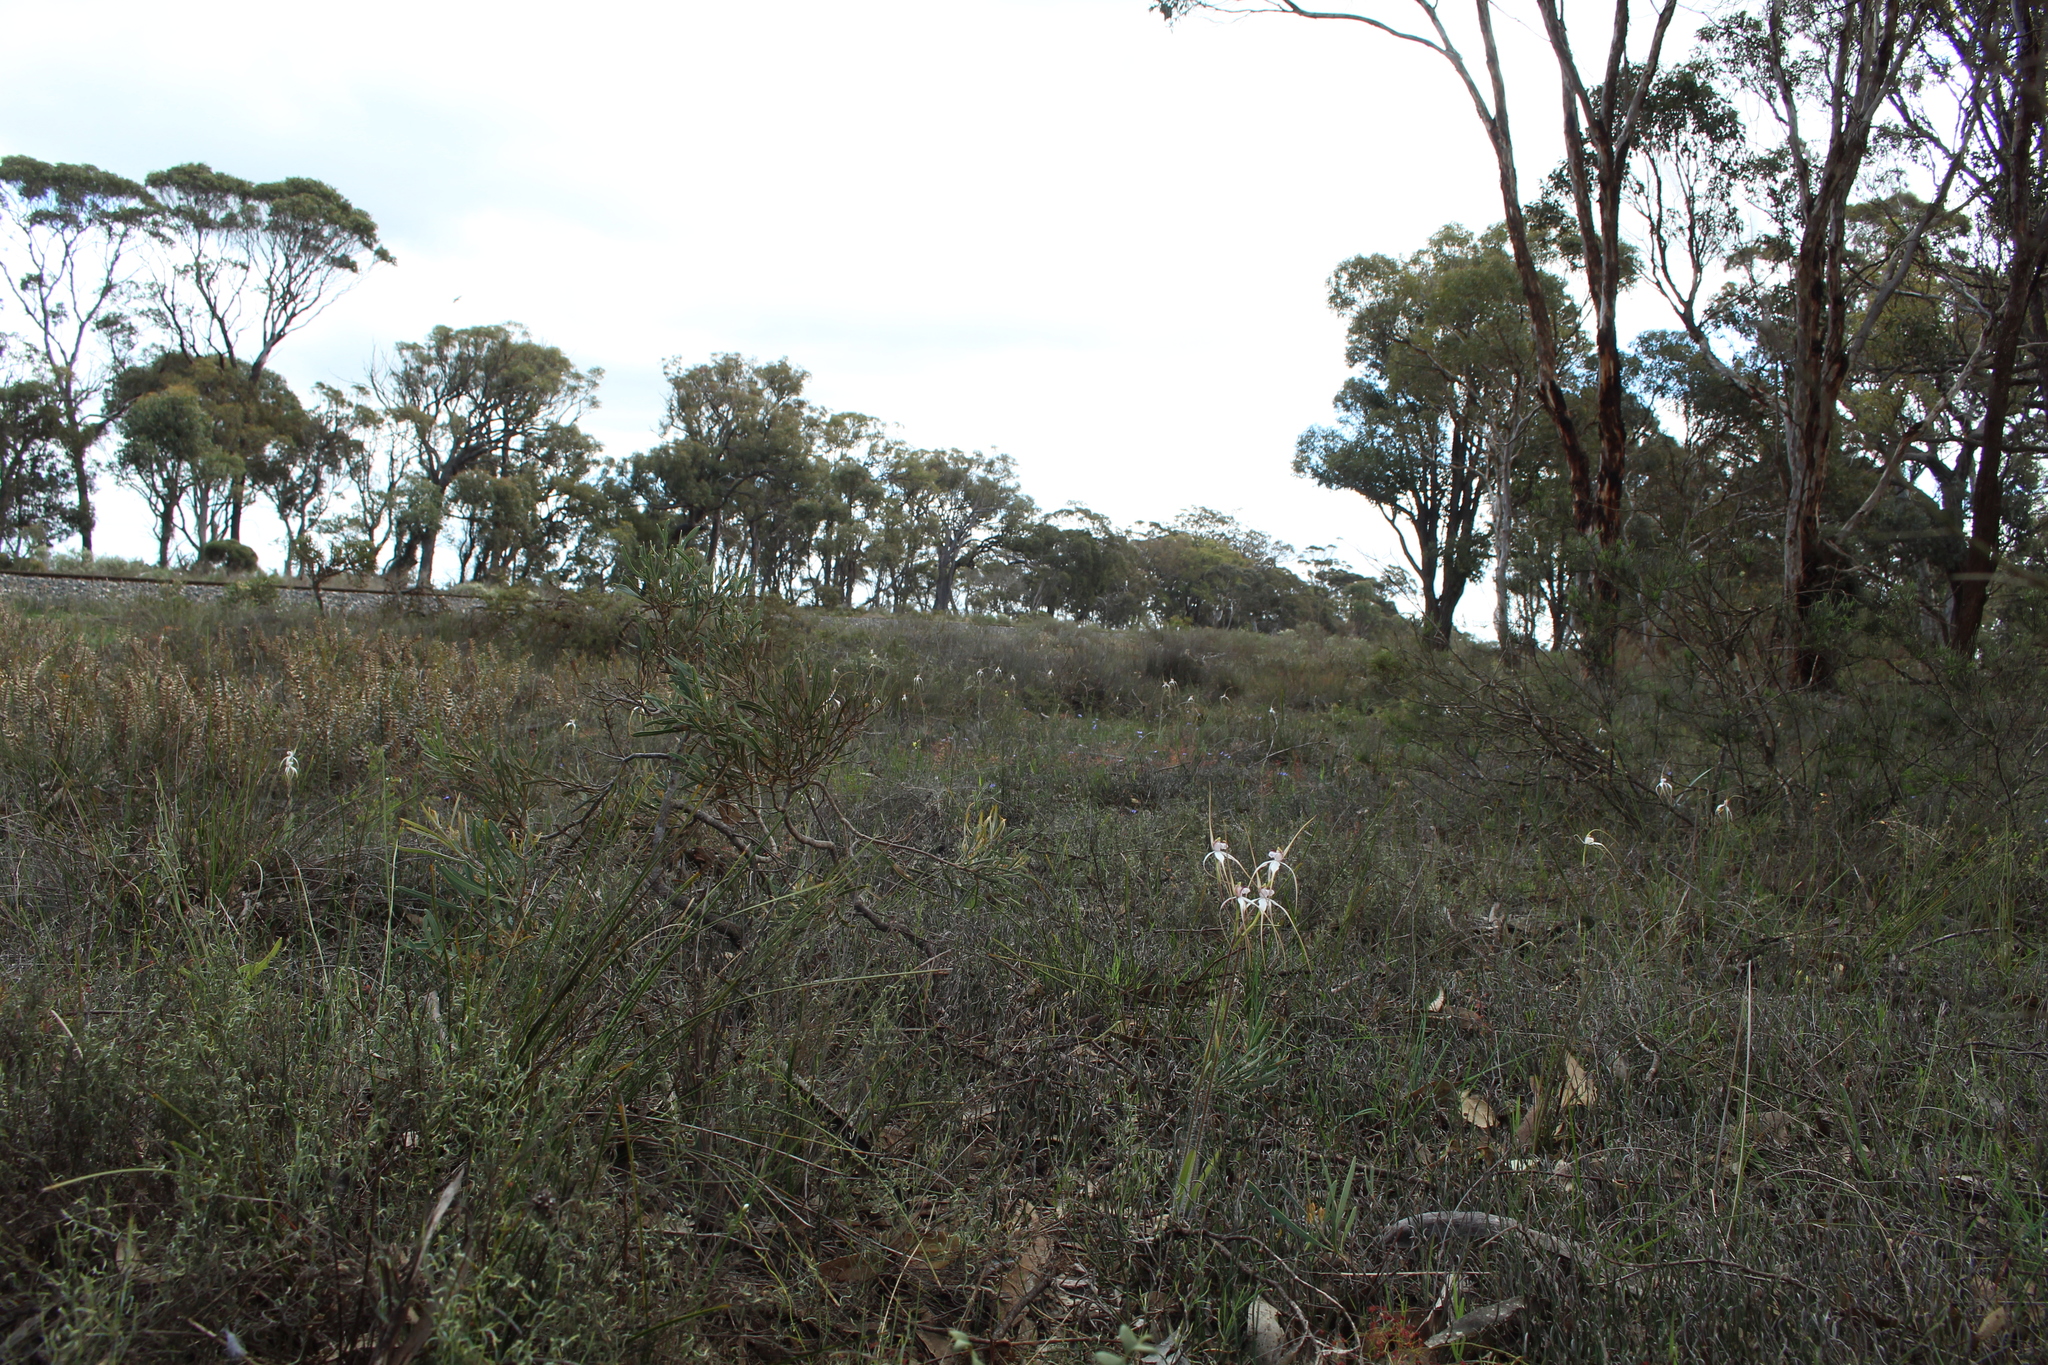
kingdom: Plantae
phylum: Tracheophyta
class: Liliopsida
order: Asparagales
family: Orchidaceae
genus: Caladenia
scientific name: Caladenia longicauda
